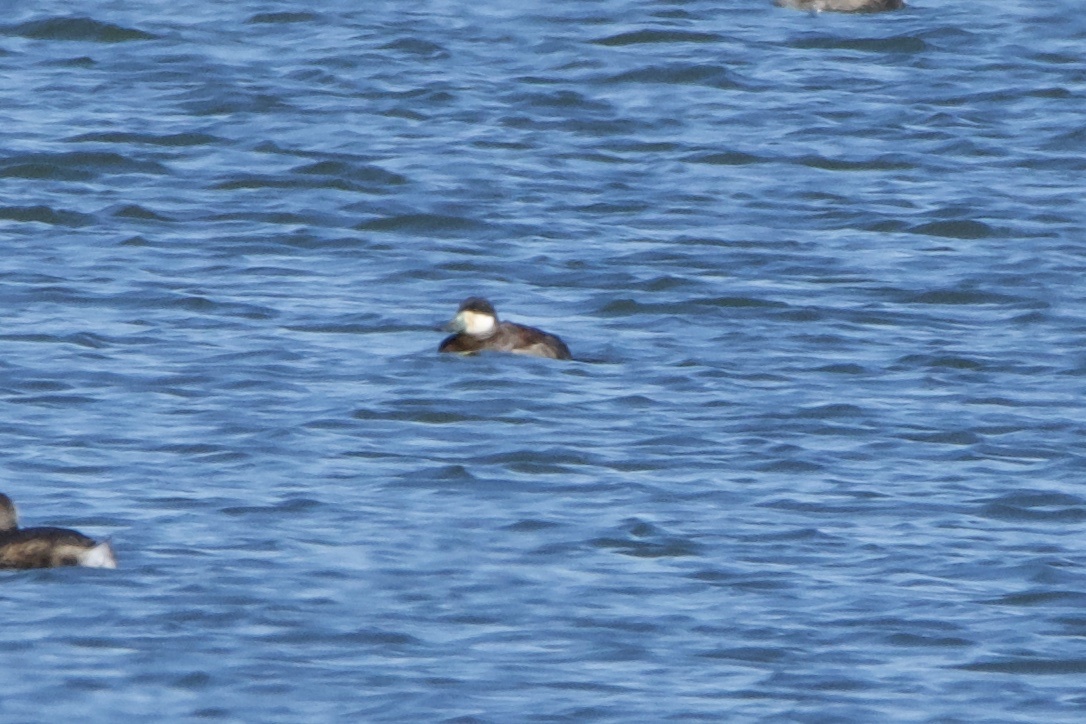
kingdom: Animalia
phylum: Chordata
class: Aves
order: Anseriformes
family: Anatidae
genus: Oxyura
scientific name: Oxyura jamaicensis
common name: Ruddy duck
